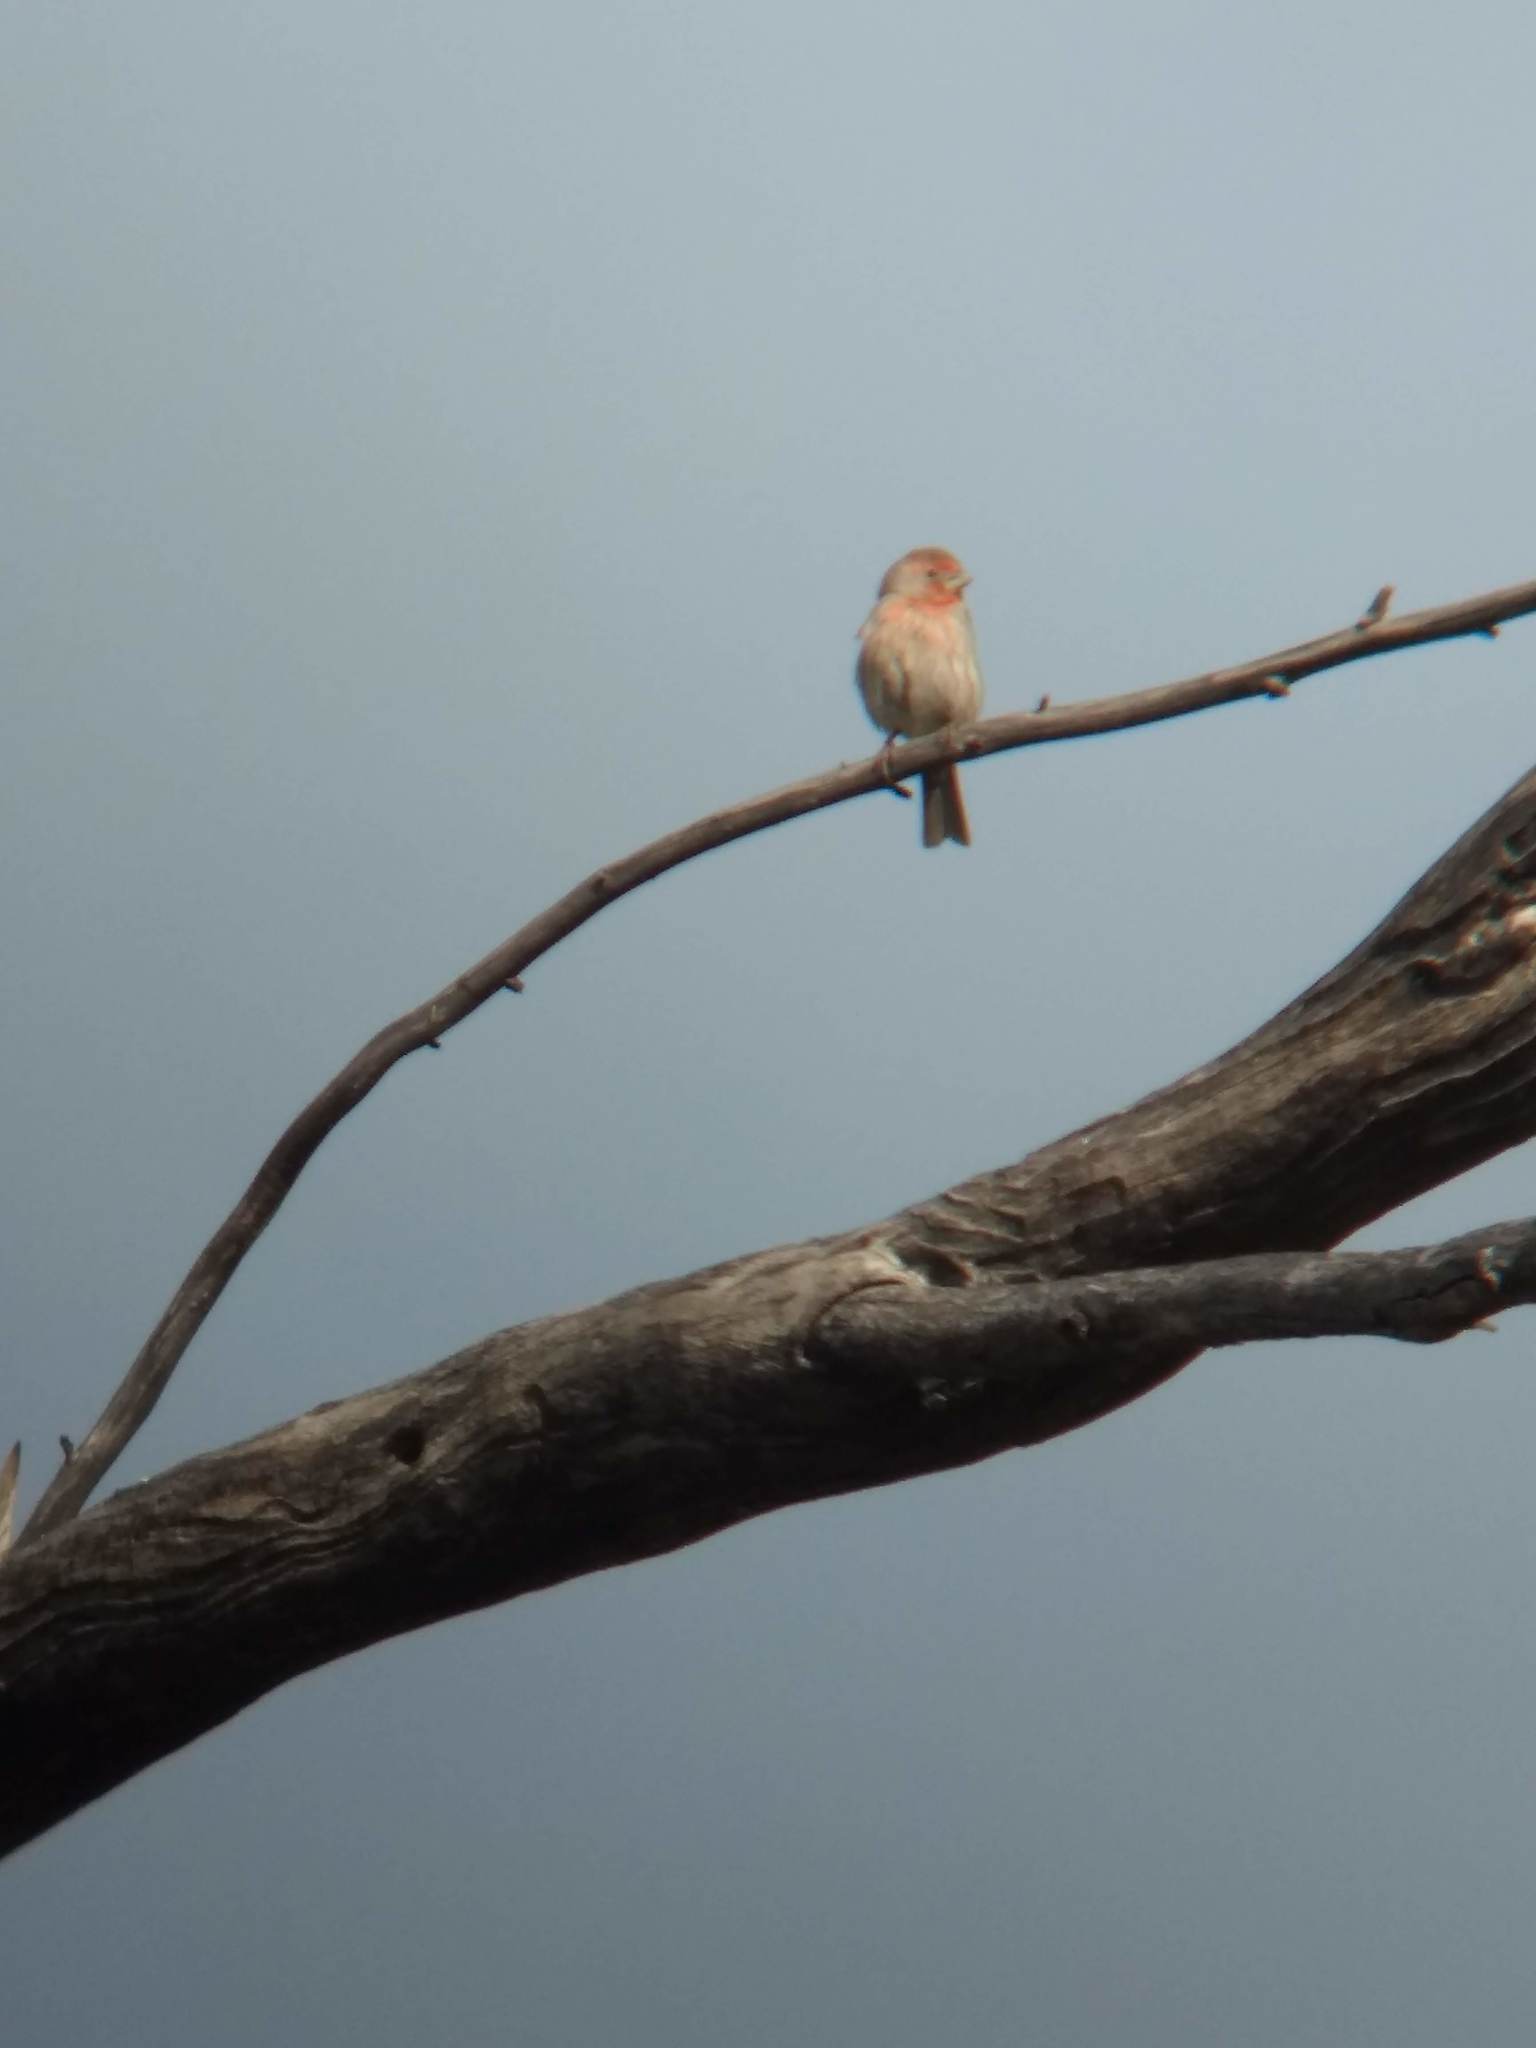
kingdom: Animalia
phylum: Chordata
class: Aves
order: Passeriformes
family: Fringillidae
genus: Haemorhous
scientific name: Haemorhous mexicanus
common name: House finch
